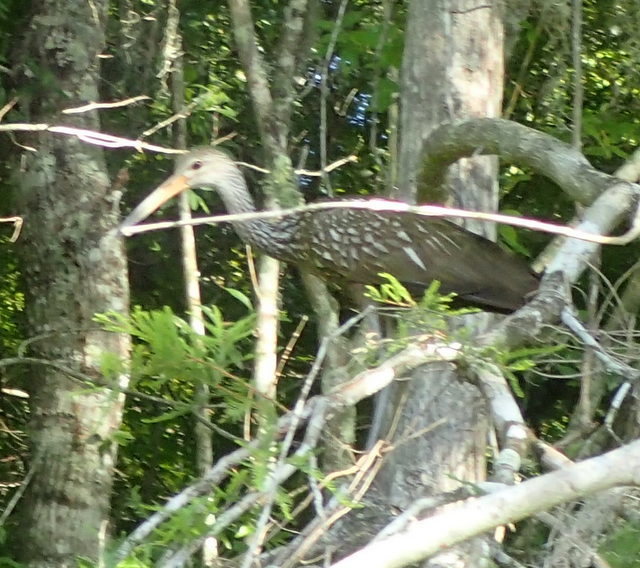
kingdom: Animalia
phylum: Chordata
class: Aves
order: Gruiformes
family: Aramidae
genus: Aramus
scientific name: Aramus guarauna
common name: Limpkin
